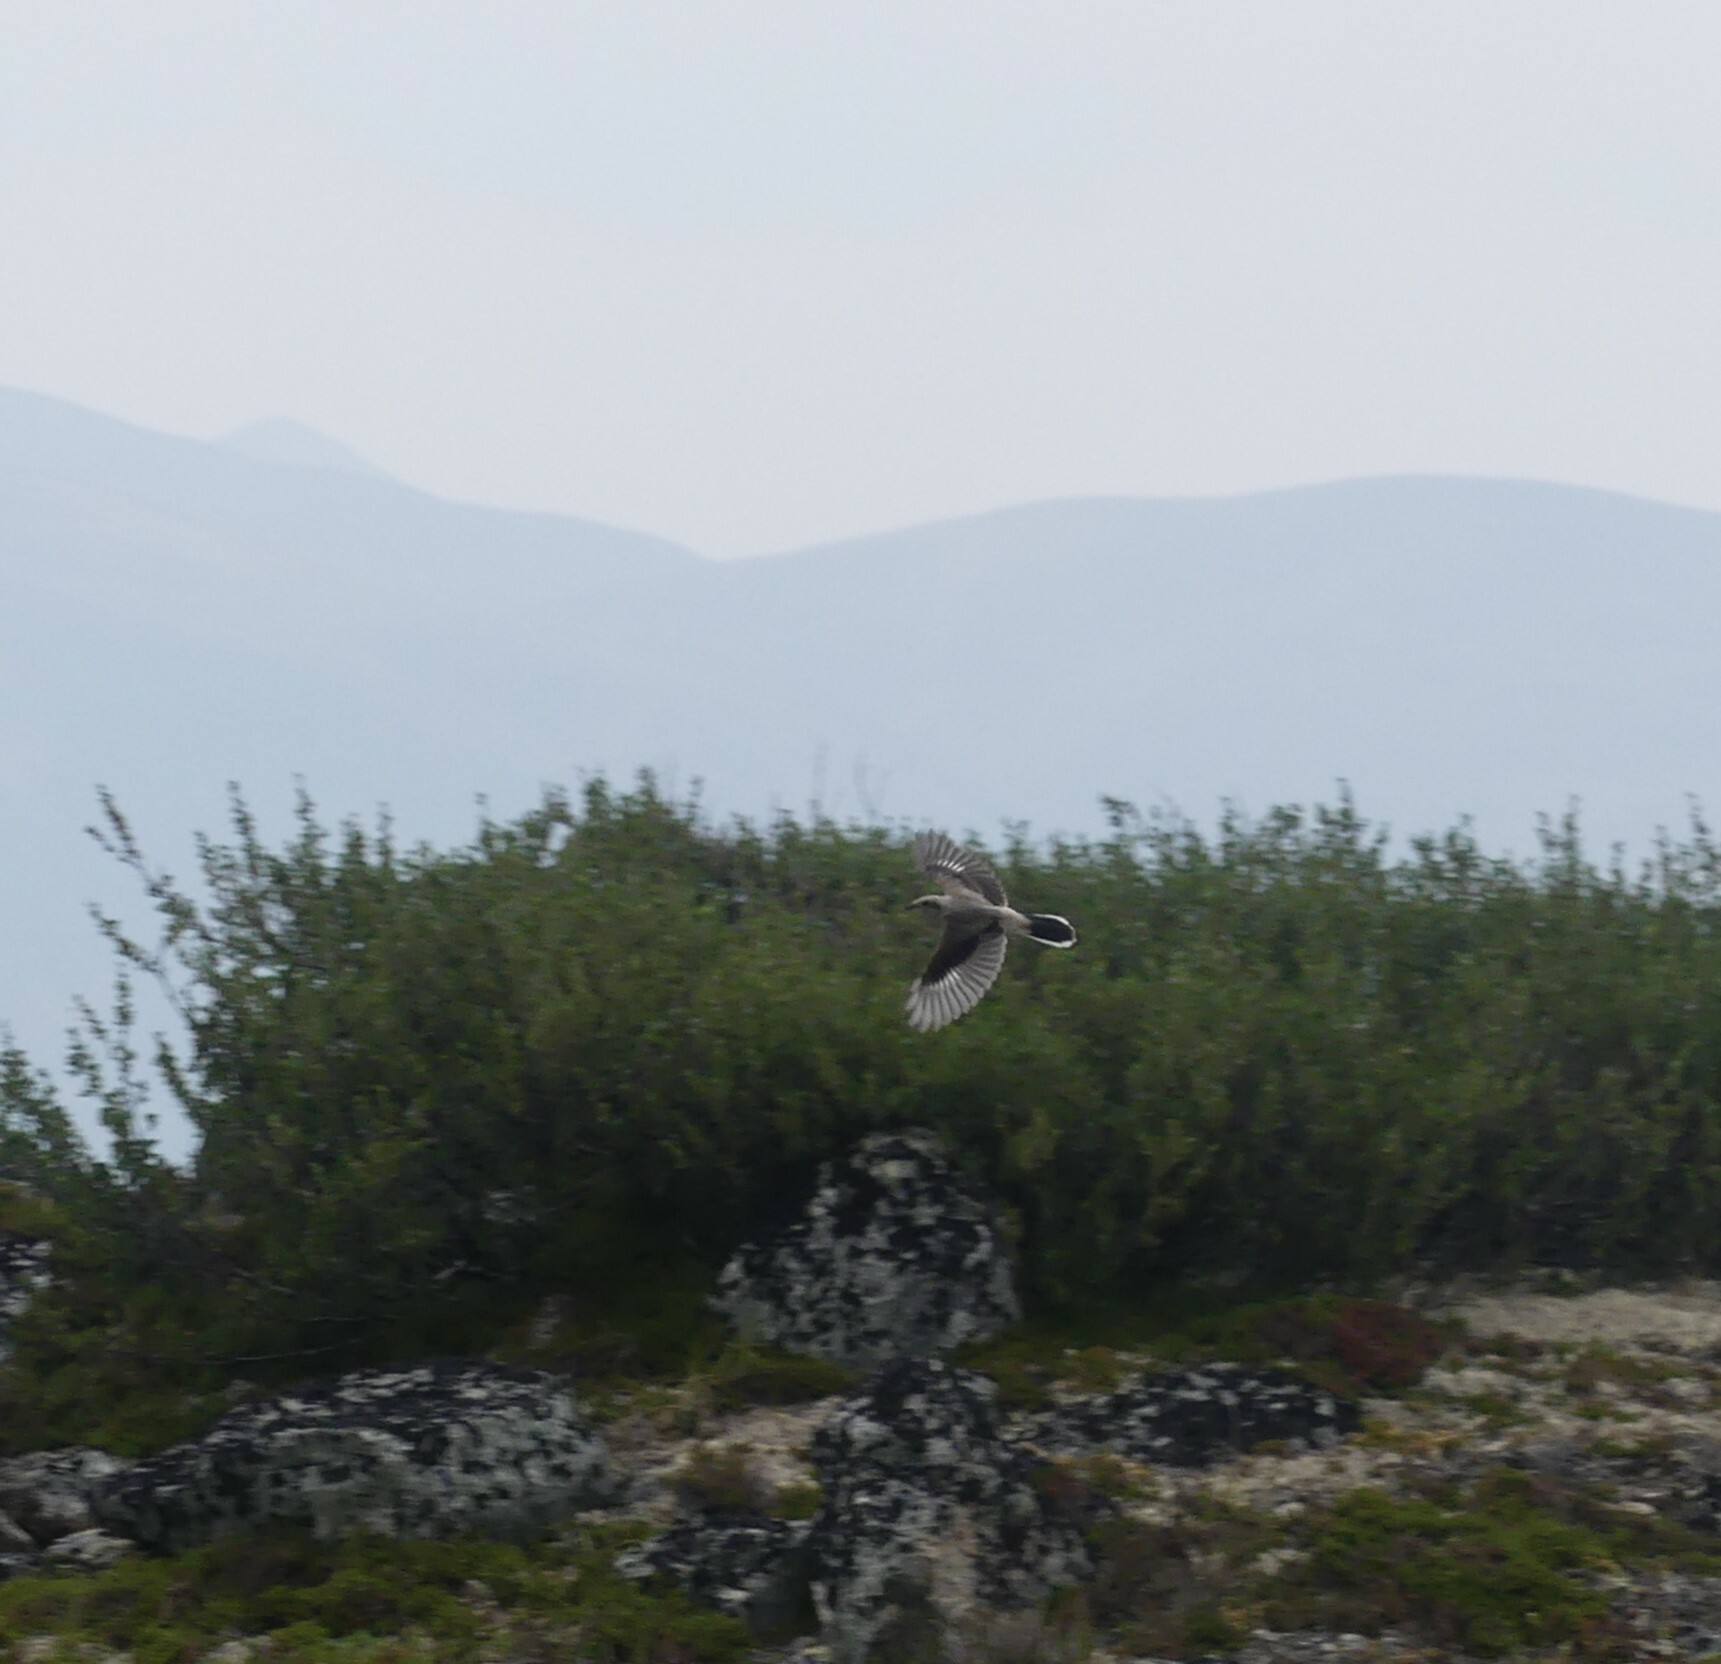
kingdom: Animalia
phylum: Chordata
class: Aves
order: Passeriformes
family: Laniidae
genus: Lanius
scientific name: Lanius borealis
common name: Northern shrike
